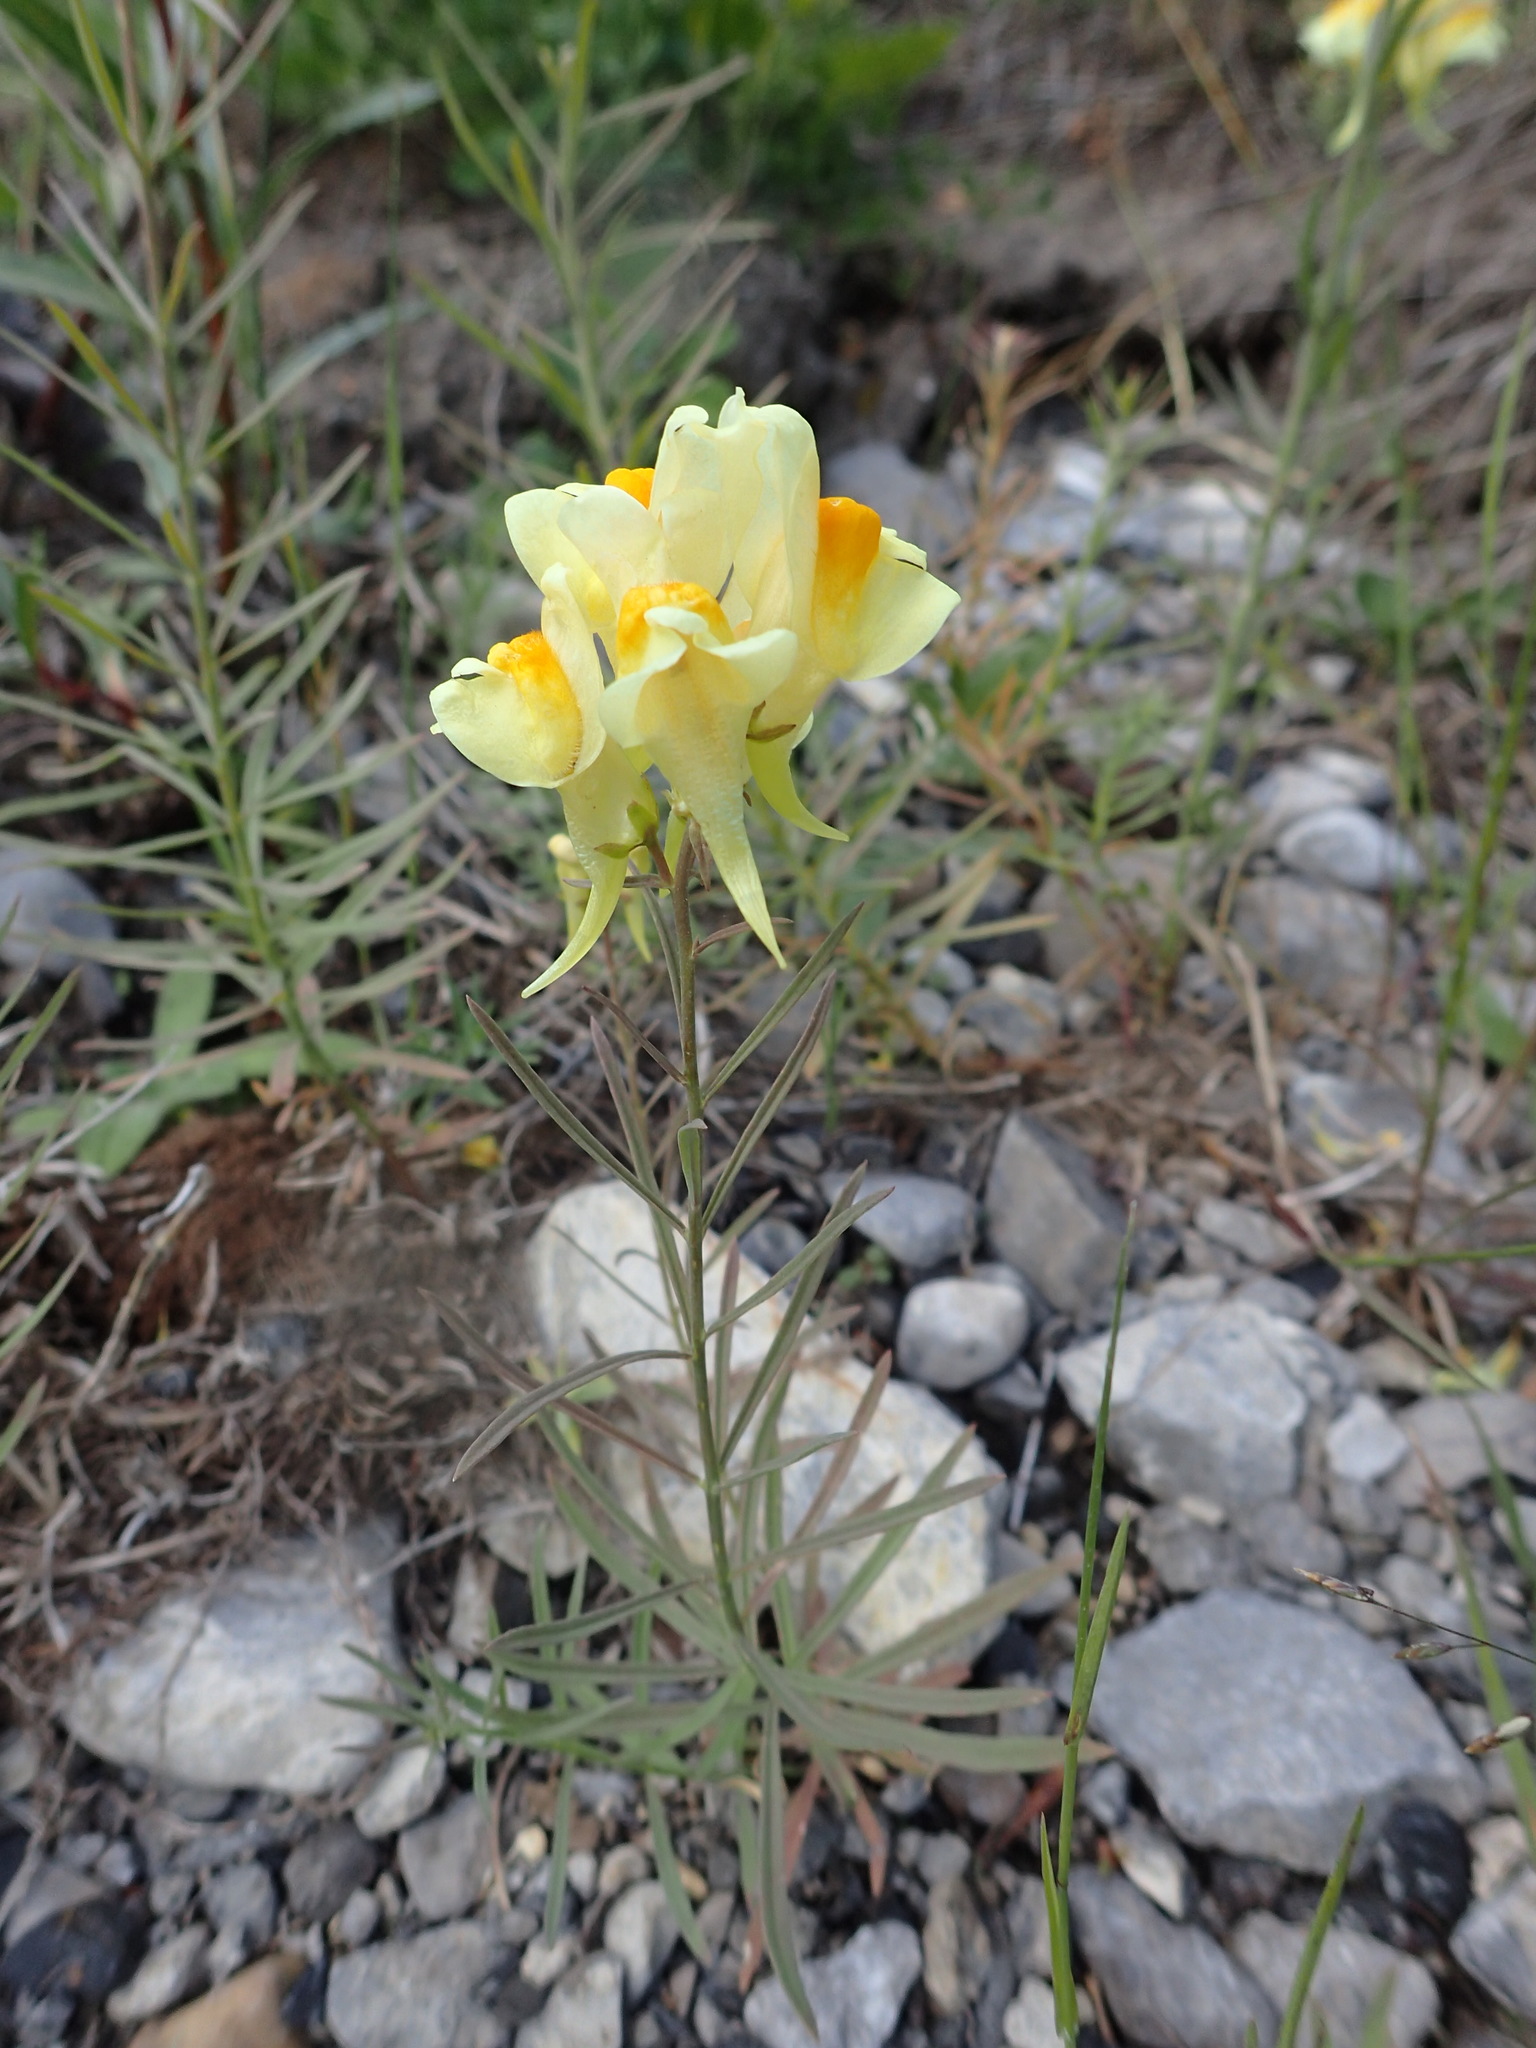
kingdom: Plantae
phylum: Tracheophyta
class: Magnoliopsida
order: Lamiales
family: Plantaginaceae
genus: Linaria
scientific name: Linaria vulgaris
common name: Butter and eggs
